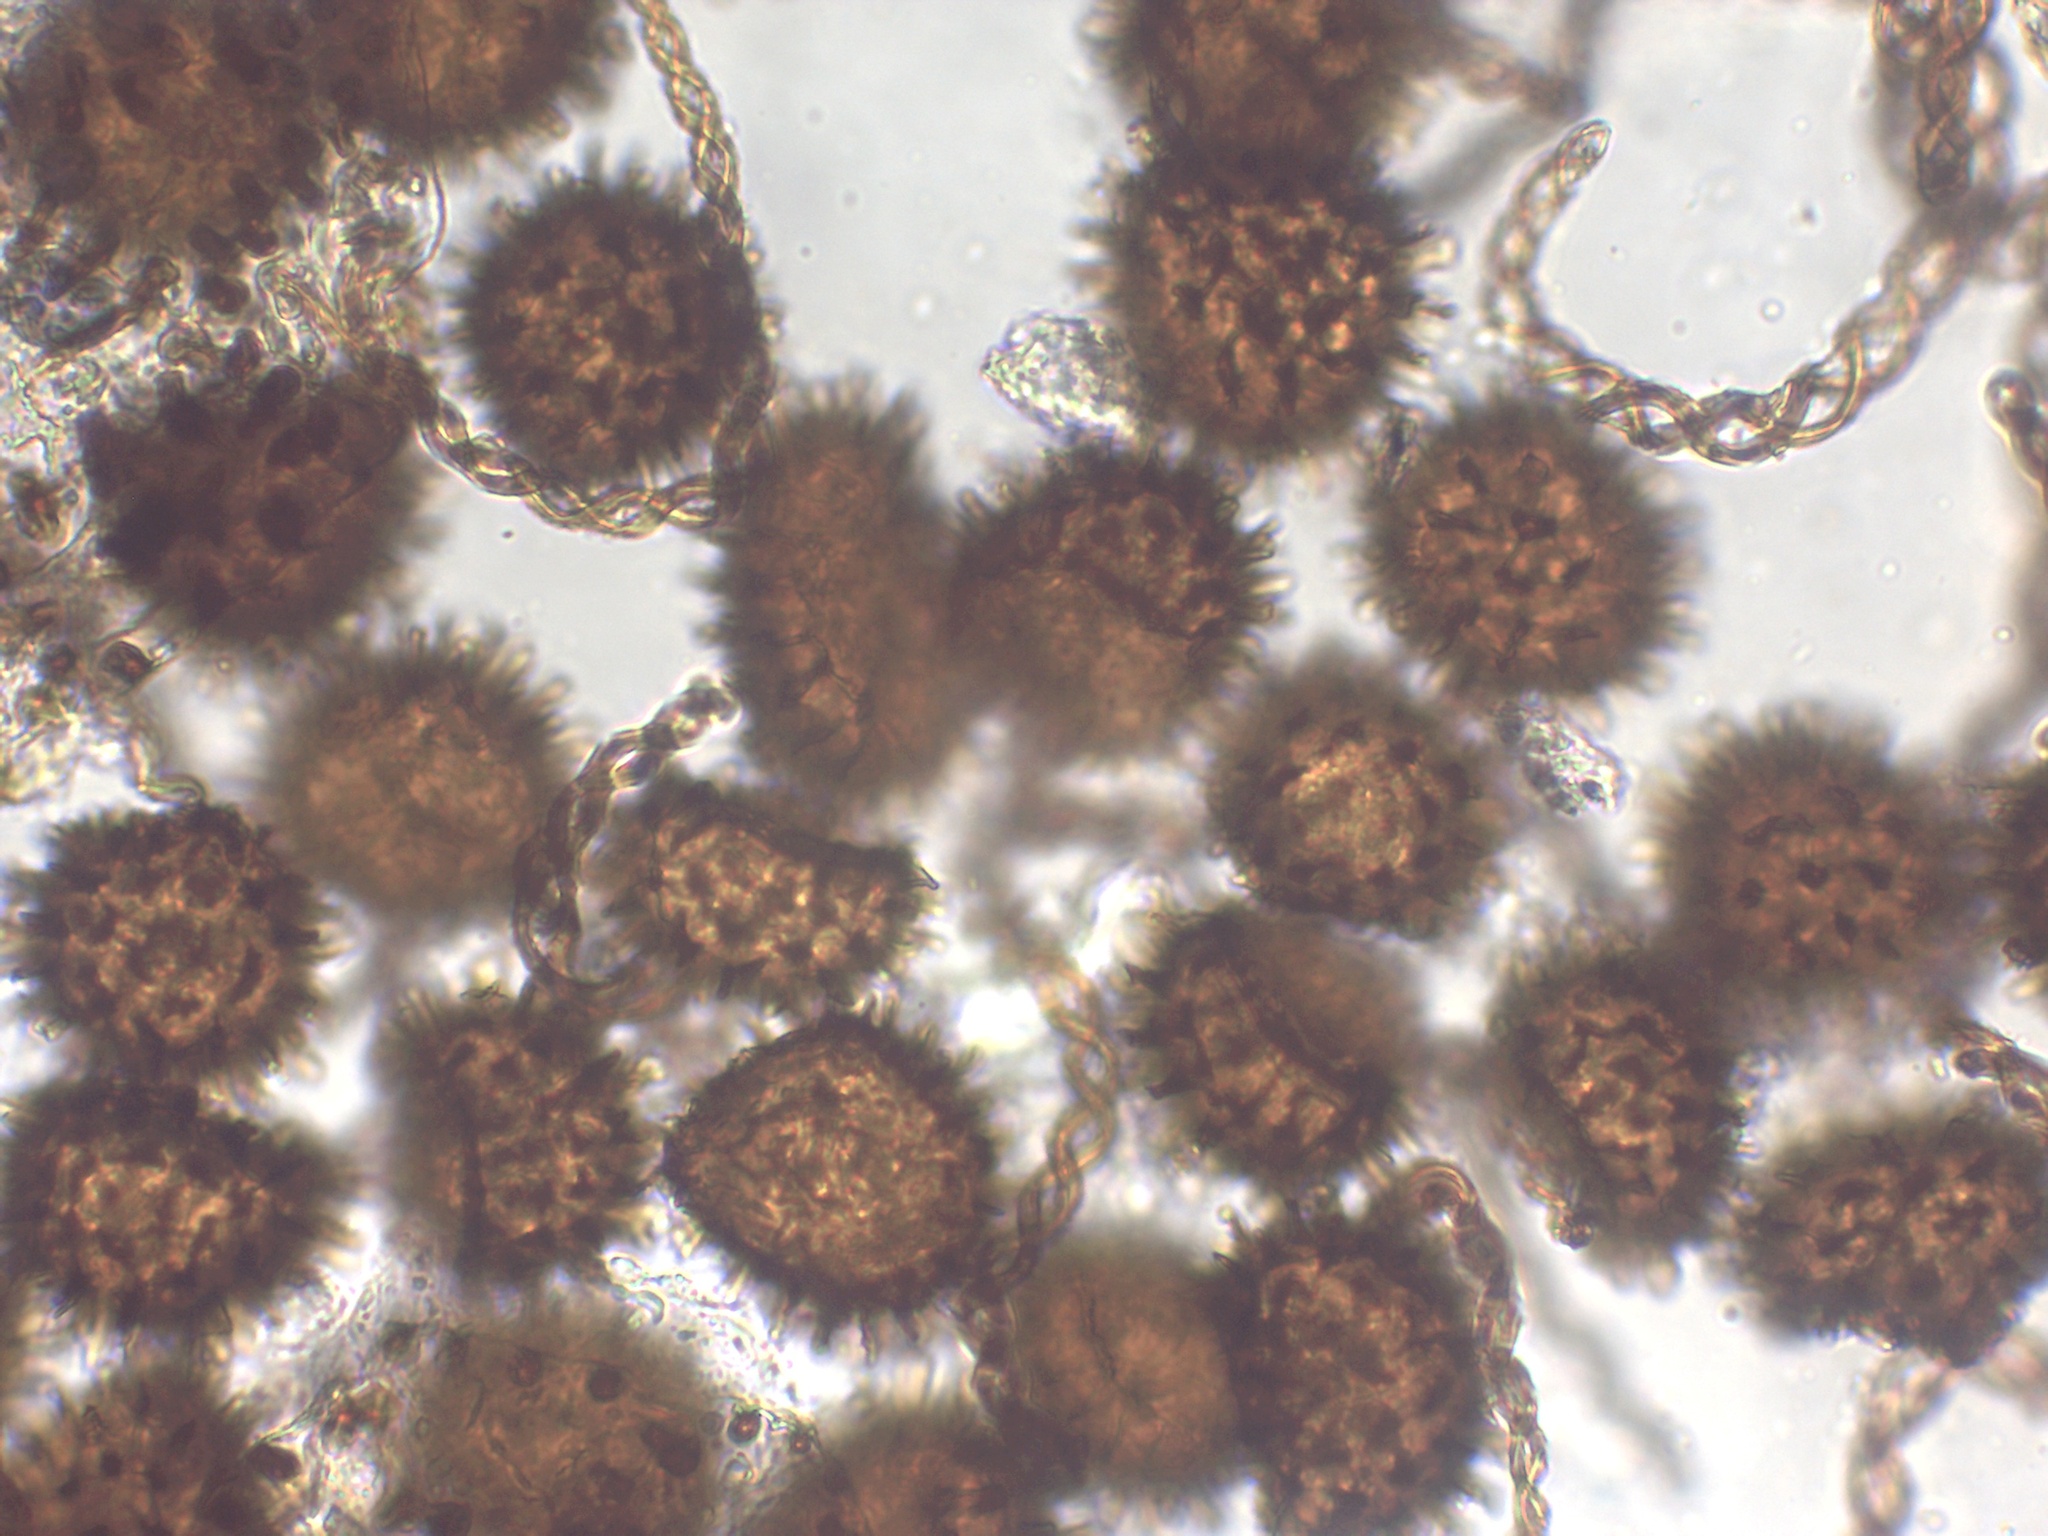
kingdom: Plantae
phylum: Marchantiophyta
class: Jungermanniopsida
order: Fossombroniales
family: Fossombroniaceae
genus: Fossombronia
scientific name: Fossombronia caespitiformis
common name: Spanish frillwort
